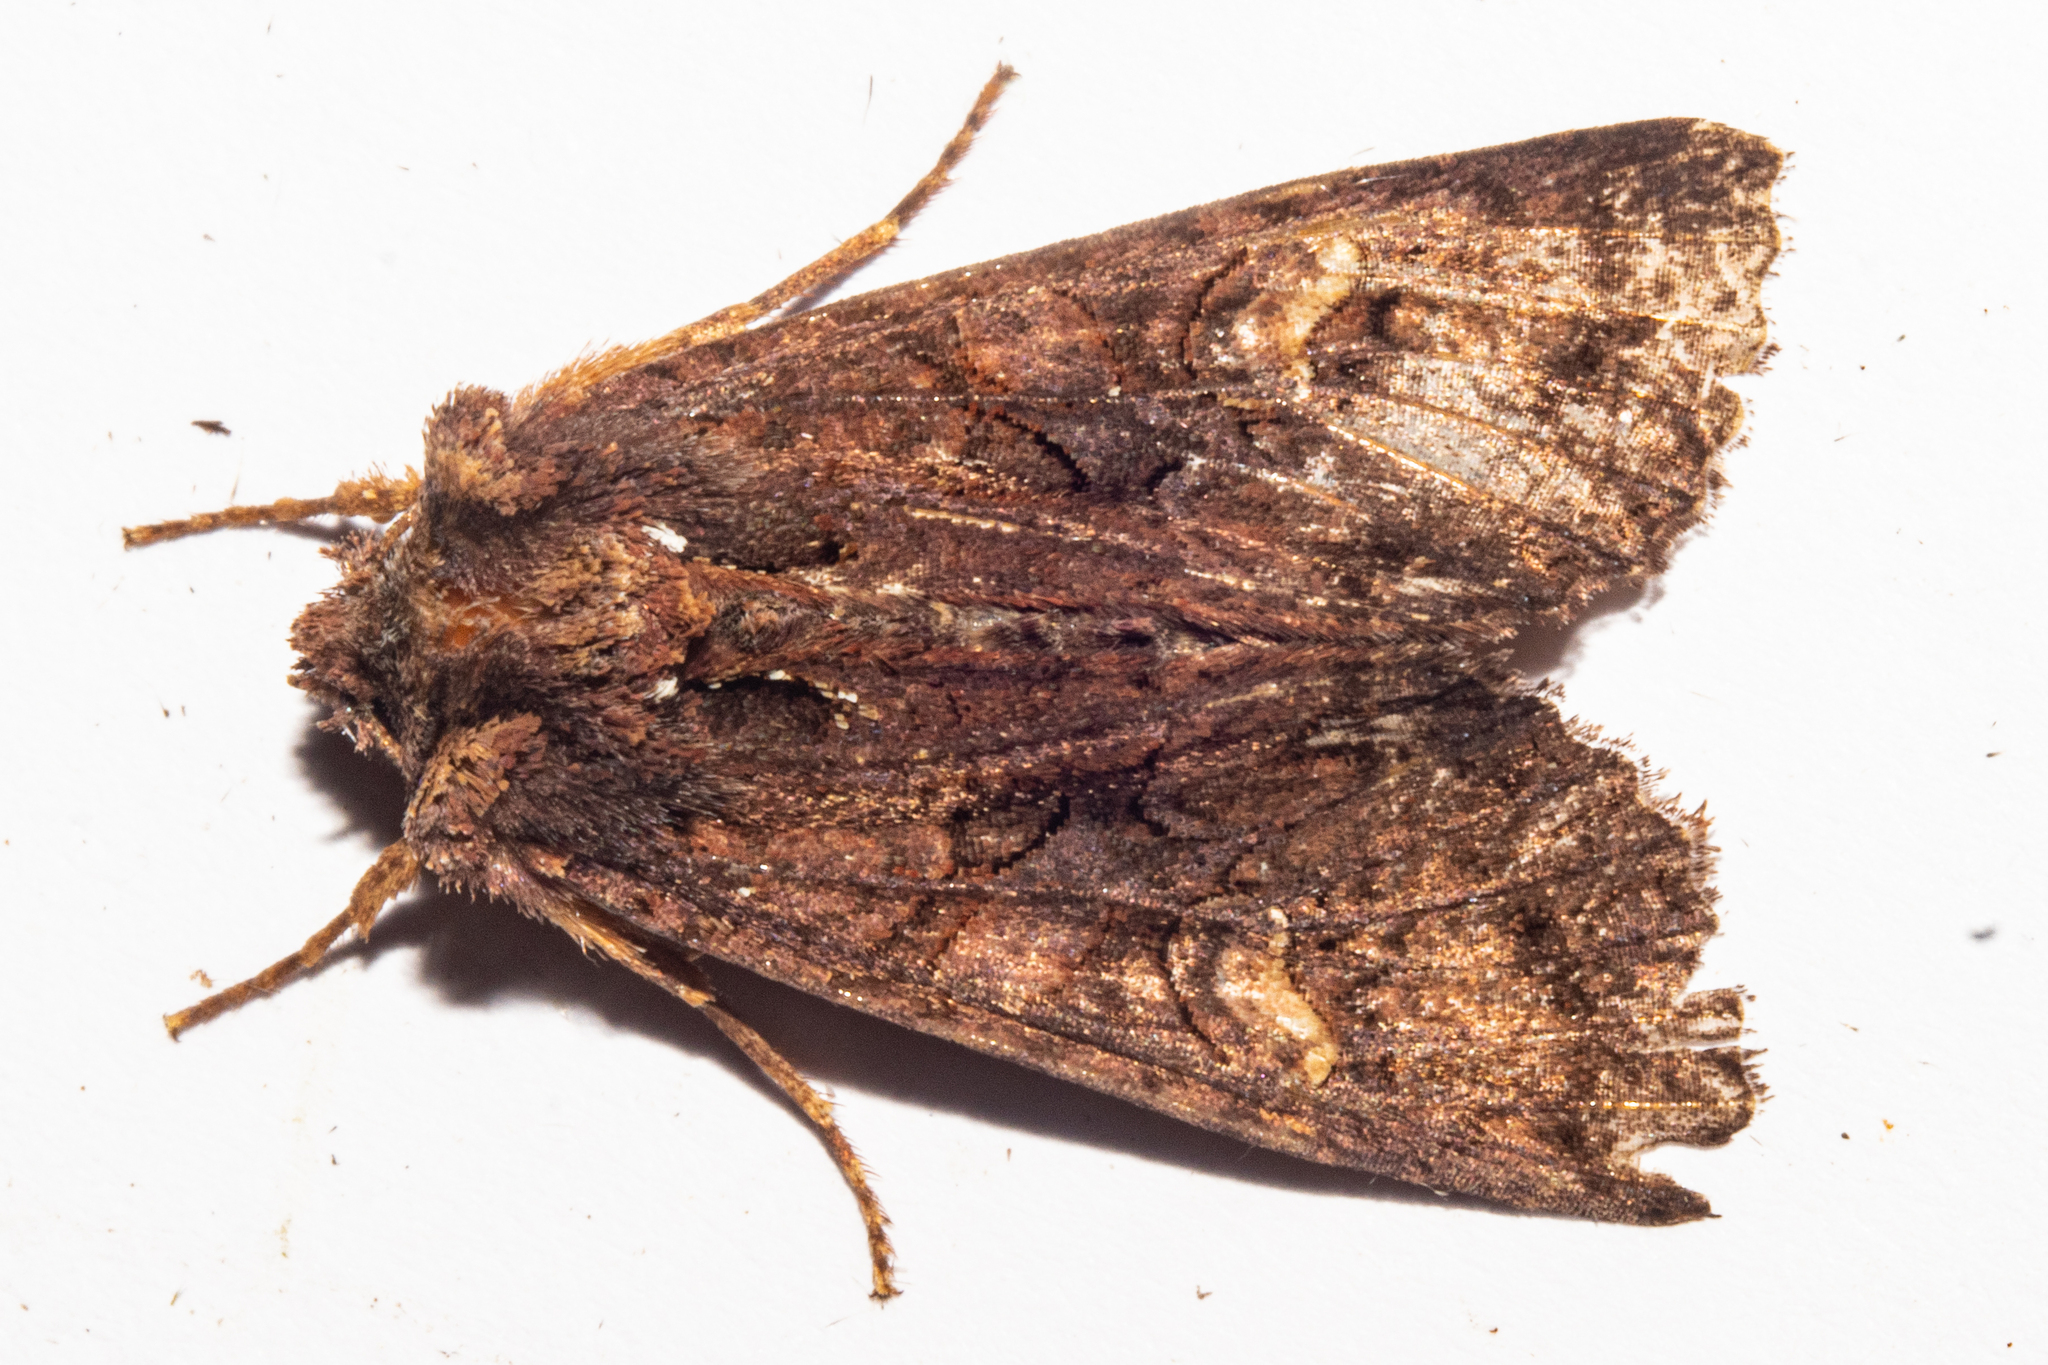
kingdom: Animalia
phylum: Arthropoda
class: Insecta
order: Lepidoptera
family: Noctuidae
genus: Meterana
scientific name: Meterana dotata
